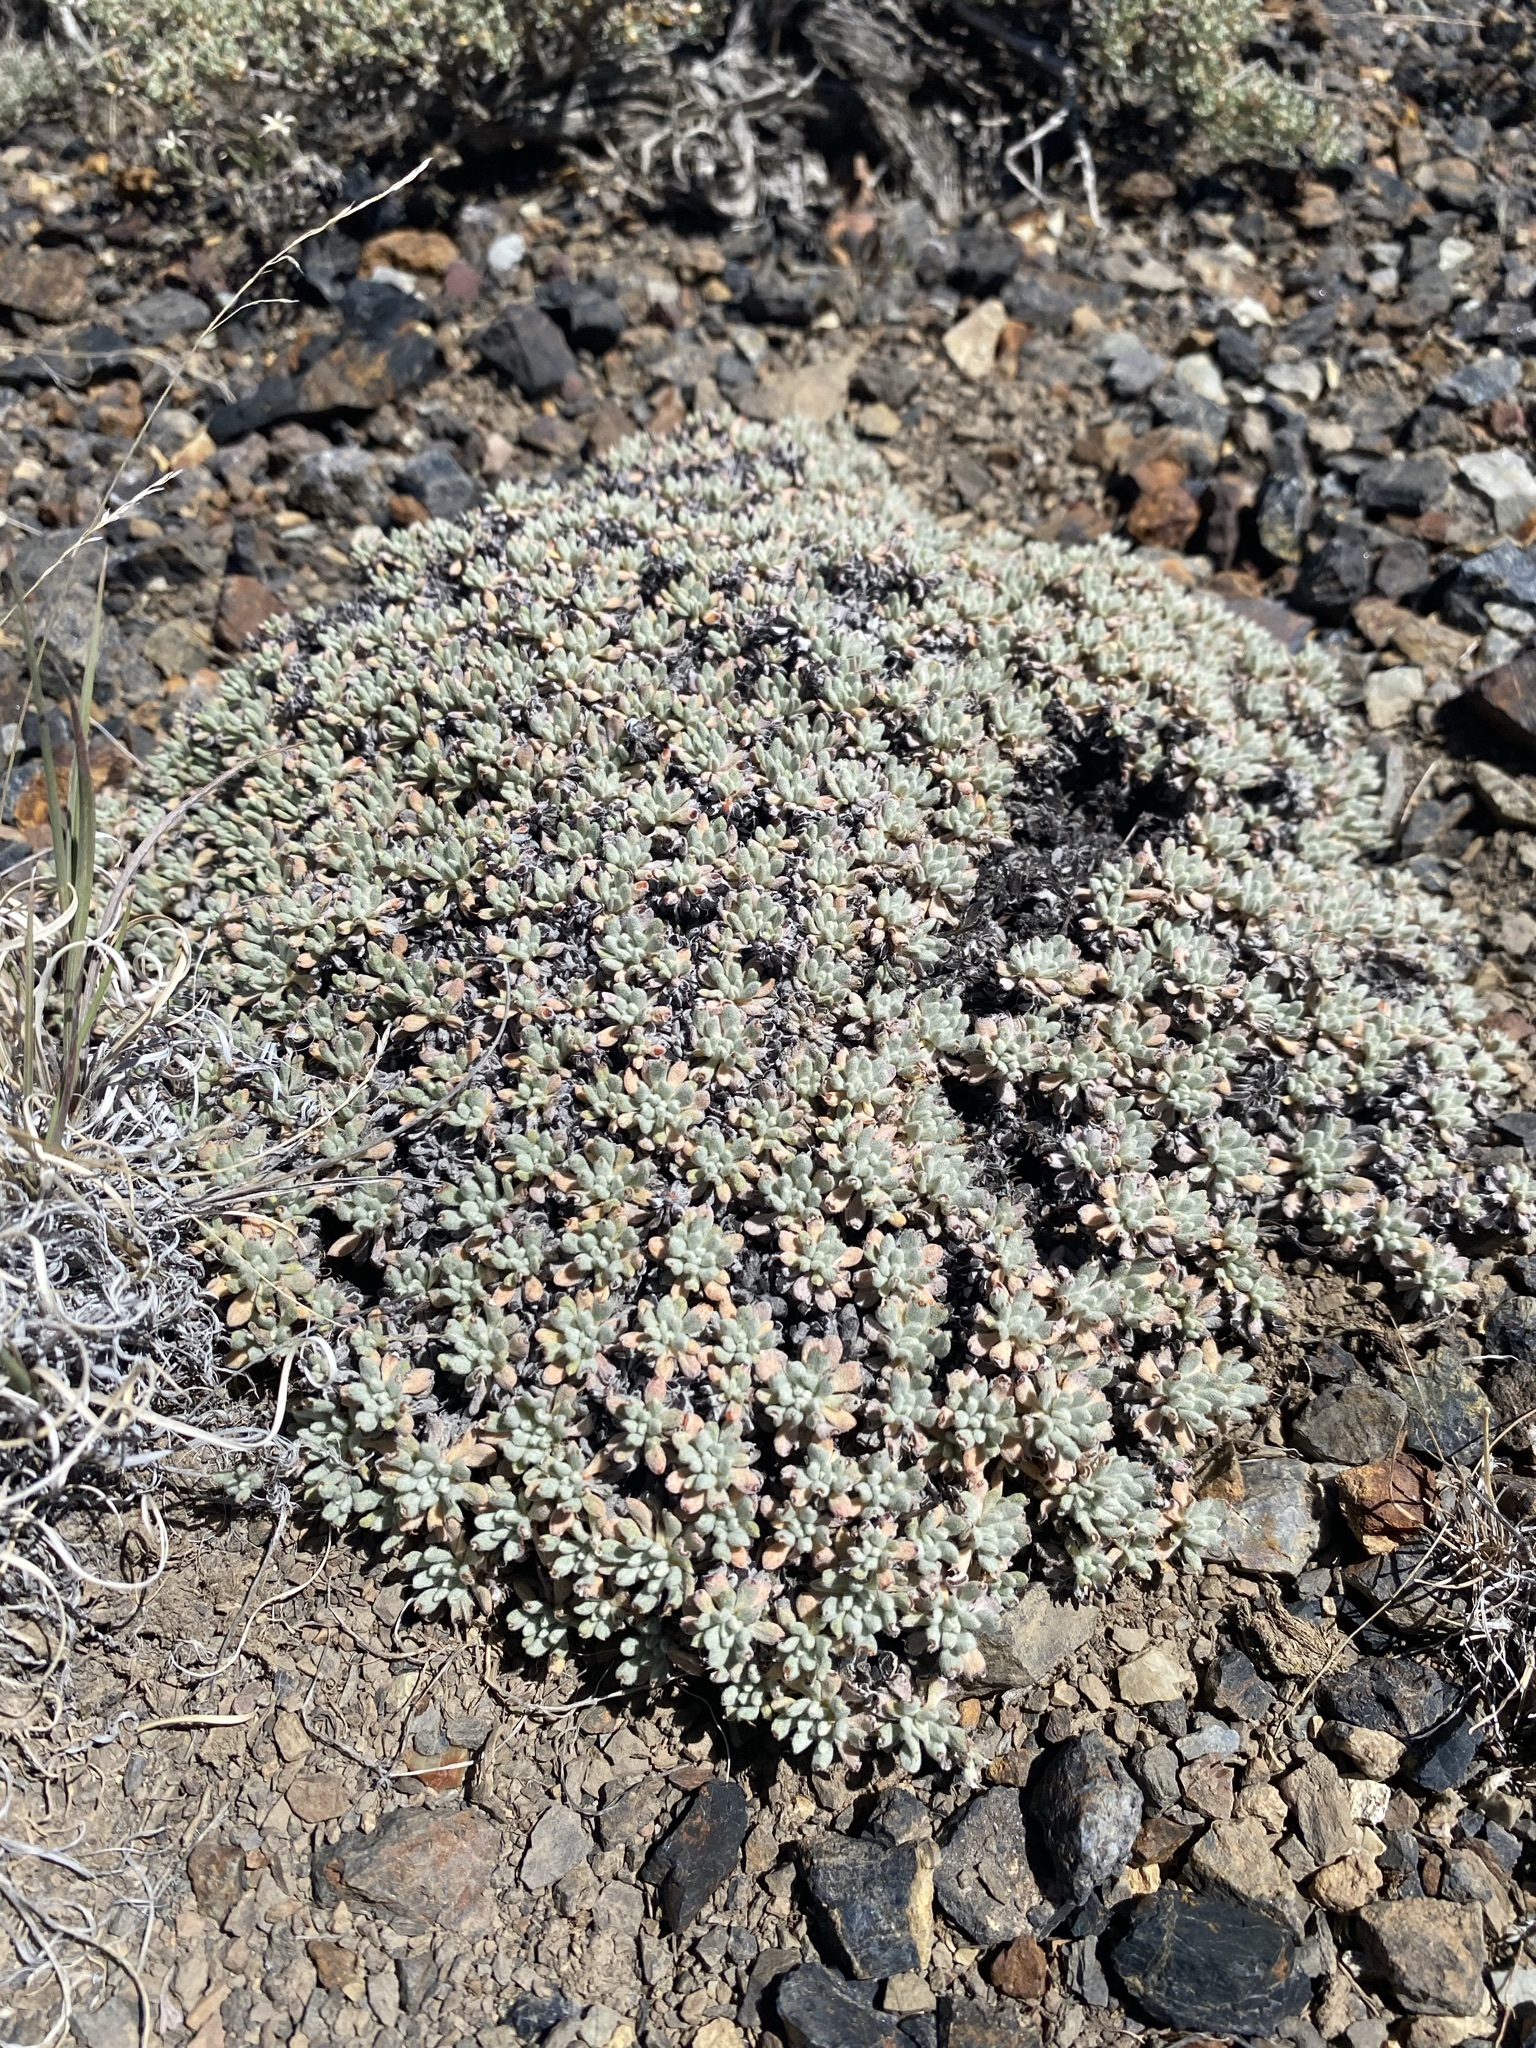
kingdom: Plantae
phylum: Tracheophyta
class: Magnoliopsida
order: Caryophyllales
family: Polygonaceae
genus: Eriogonum
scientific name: Eriogonum caespitosum
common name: Matted wild buckwheat
